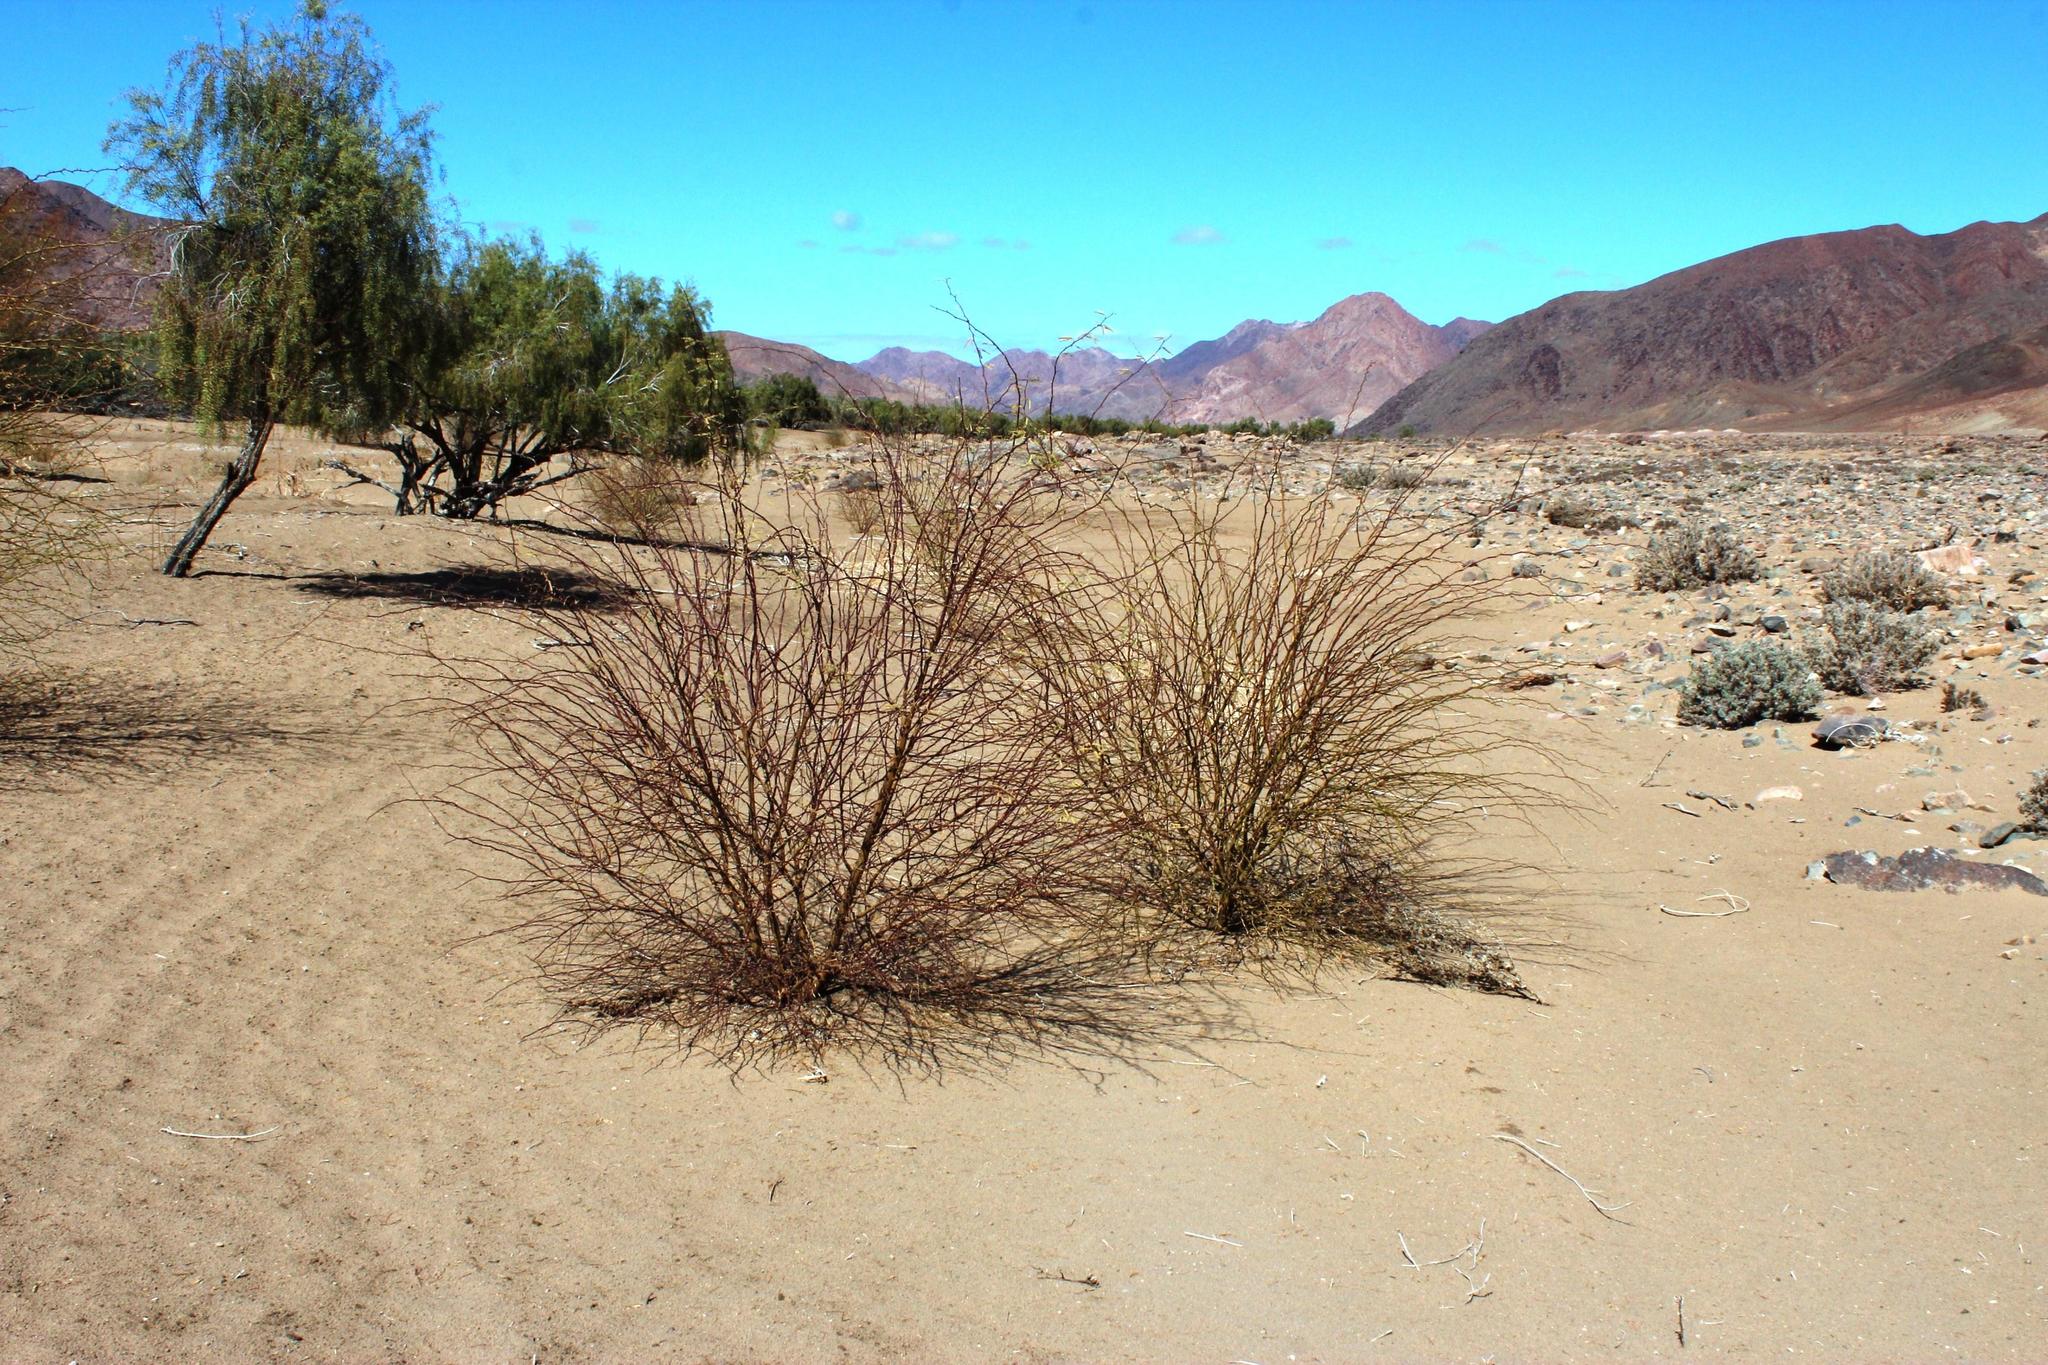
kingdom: Plantae
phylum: Tracheophyta
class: Magnoliopsida
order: Fabales
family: Fabaceae
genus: Prosopis
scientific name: Prosopis glandulosa
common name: Honey mesquite
